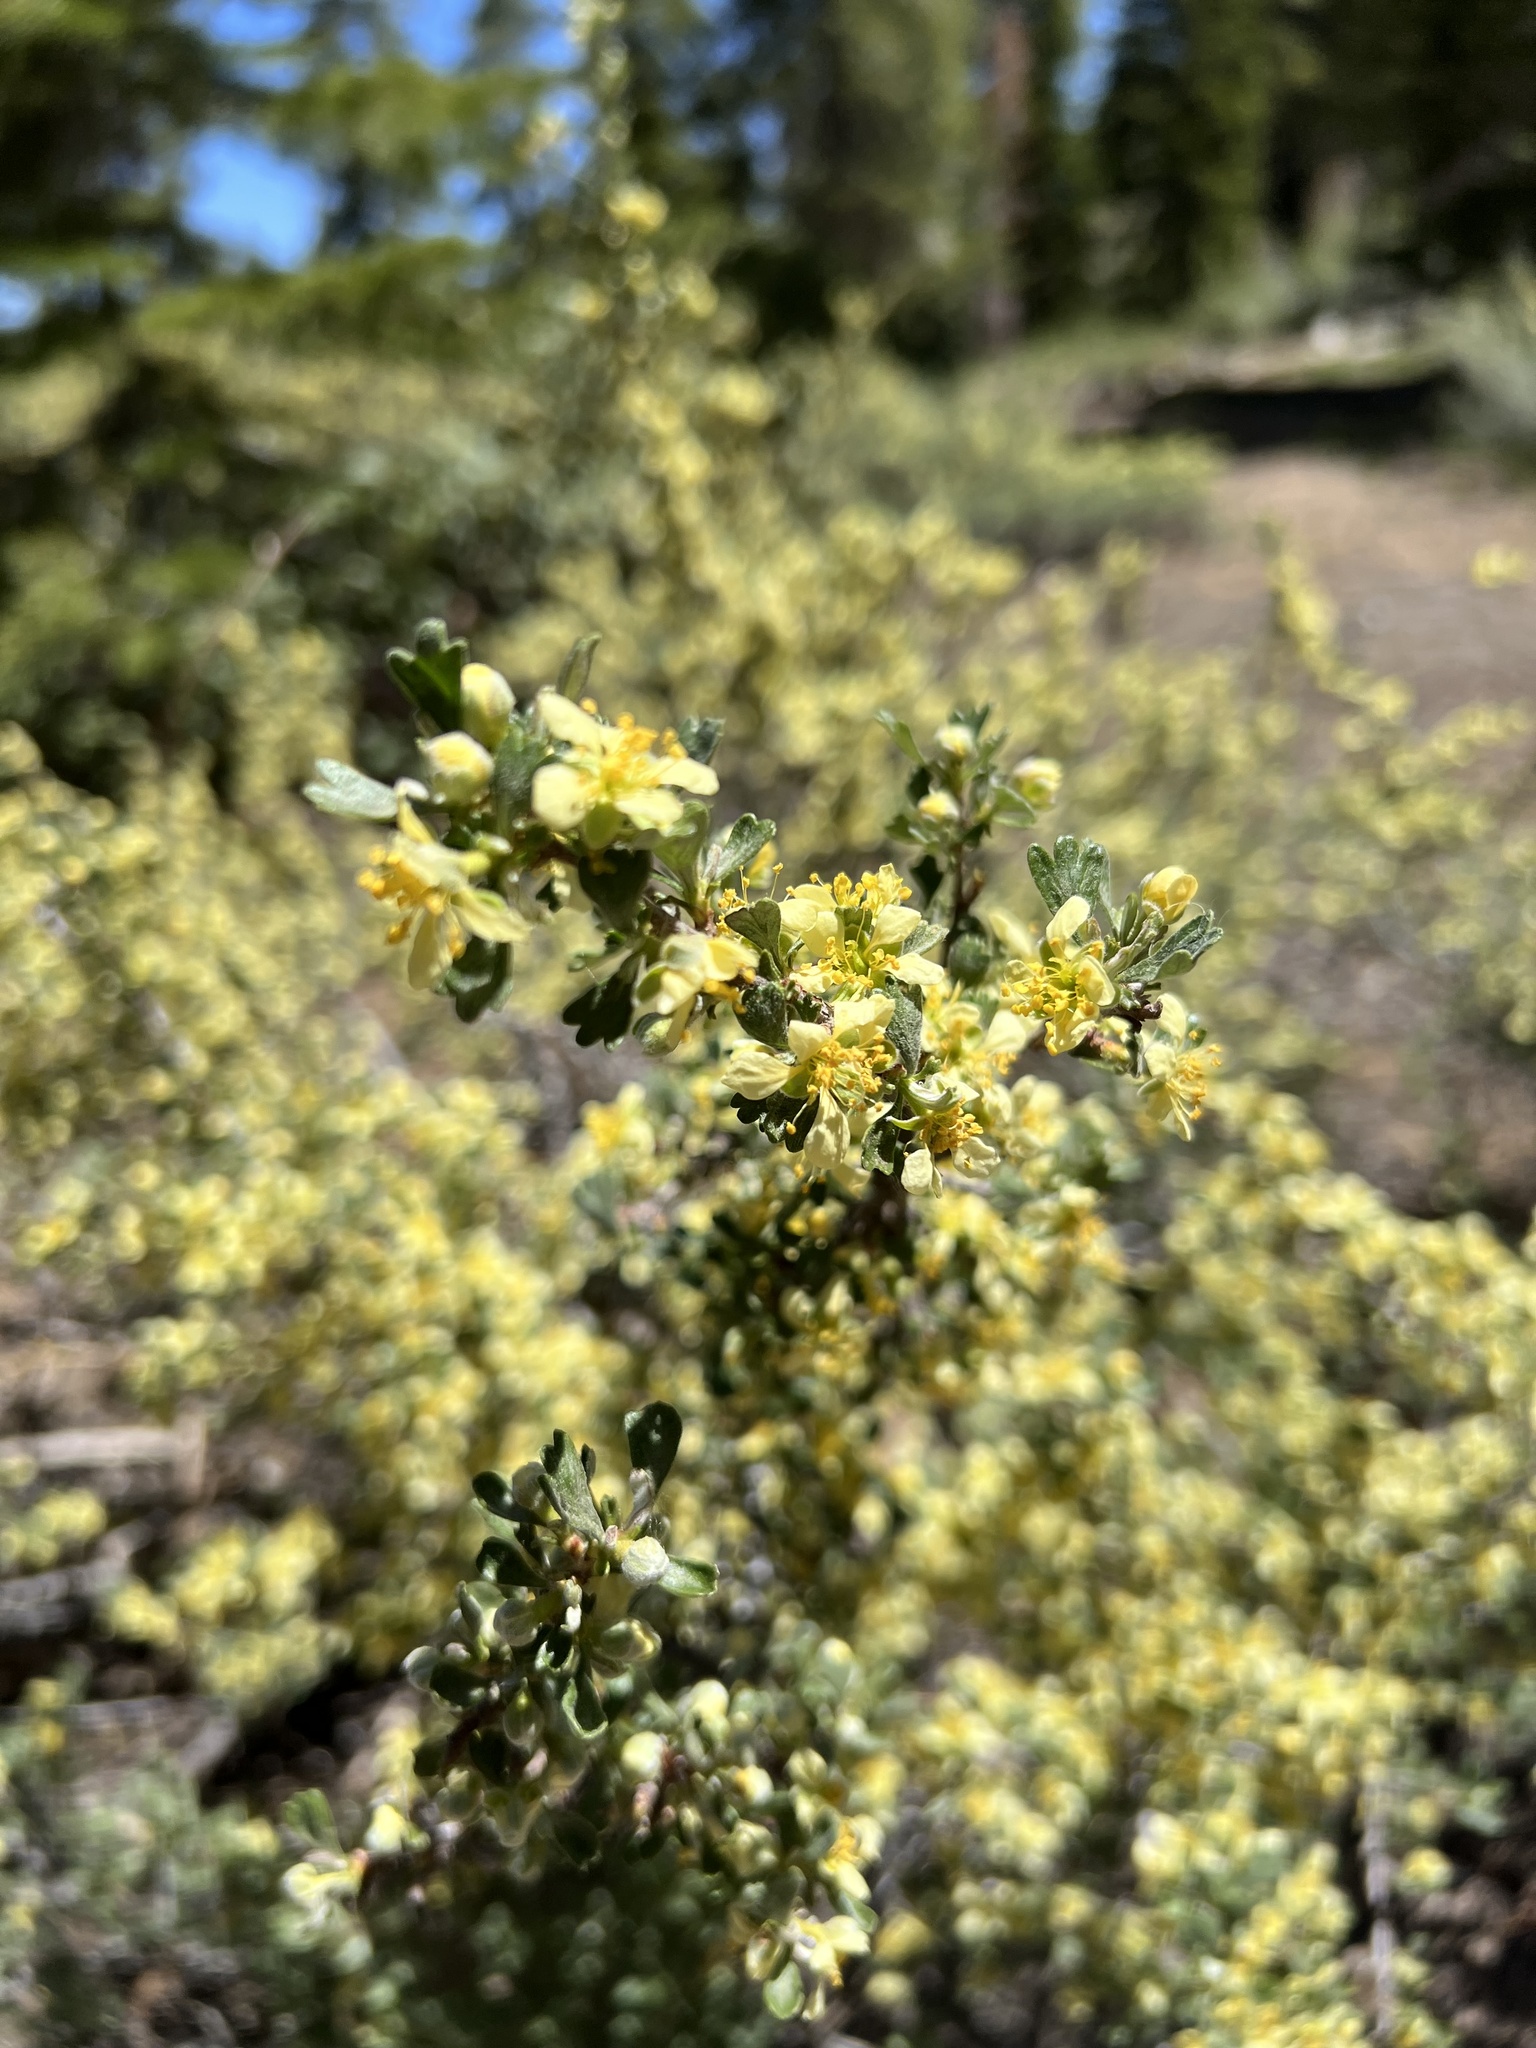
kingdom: Plantae
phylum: Tracheophyta
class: Magnoliopsida
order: Rosales
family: Rosaceae
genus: Purshia
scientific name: Purshia tridentata
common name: Antelope bitterbrush
